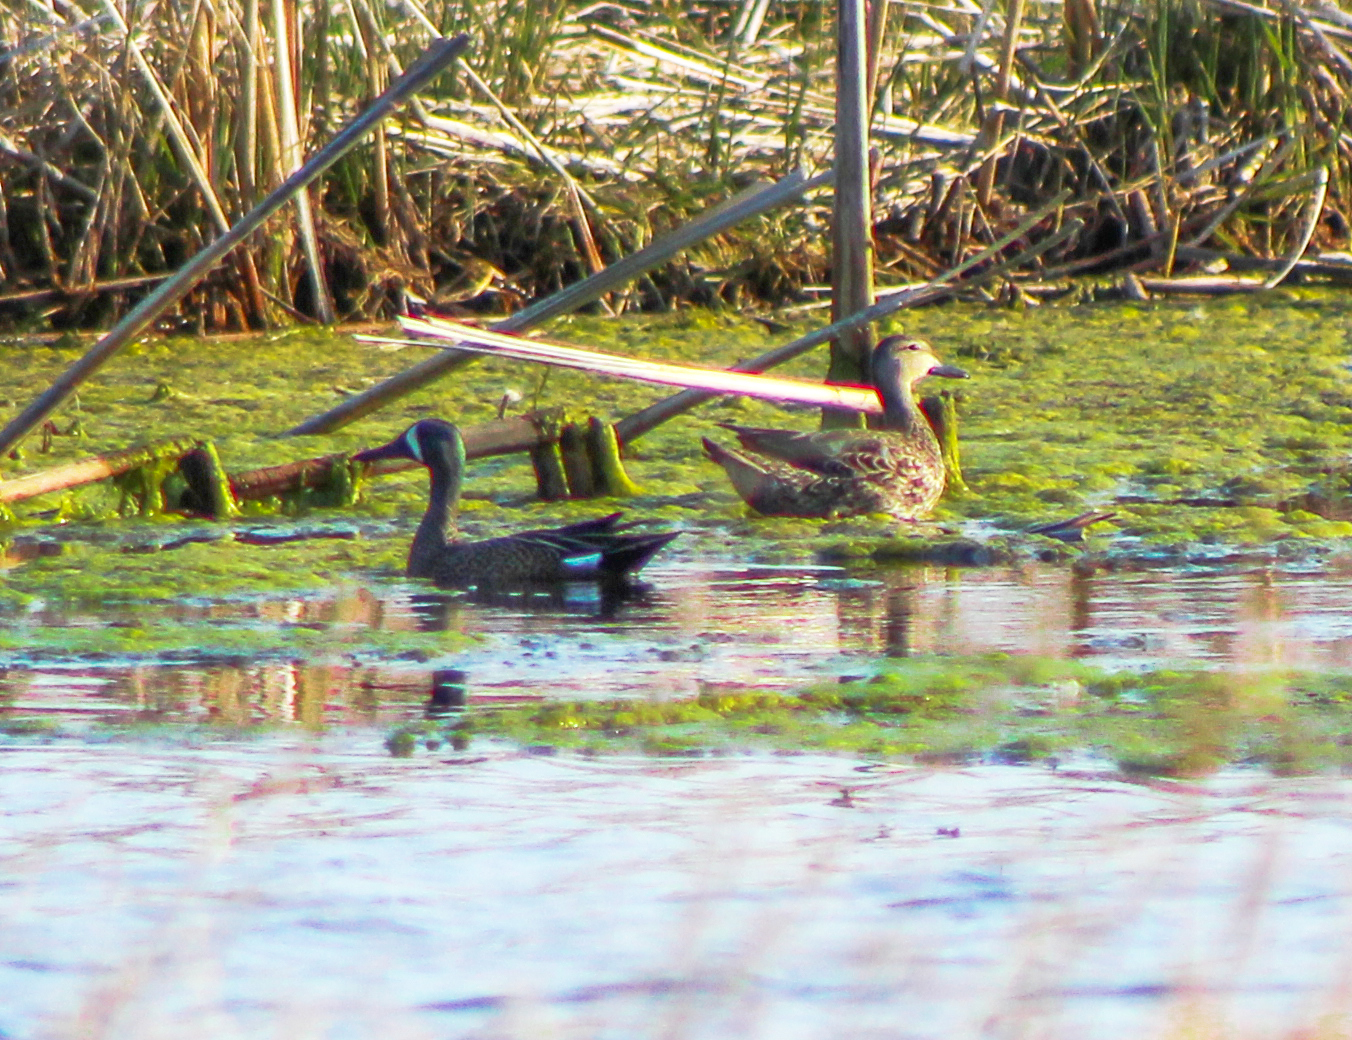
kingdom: Animalia
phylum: Chordata
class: Aves
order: Anseriformes
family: Anatidae
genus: Spatula
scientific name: Spatula discors
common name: Blue-winged teal
